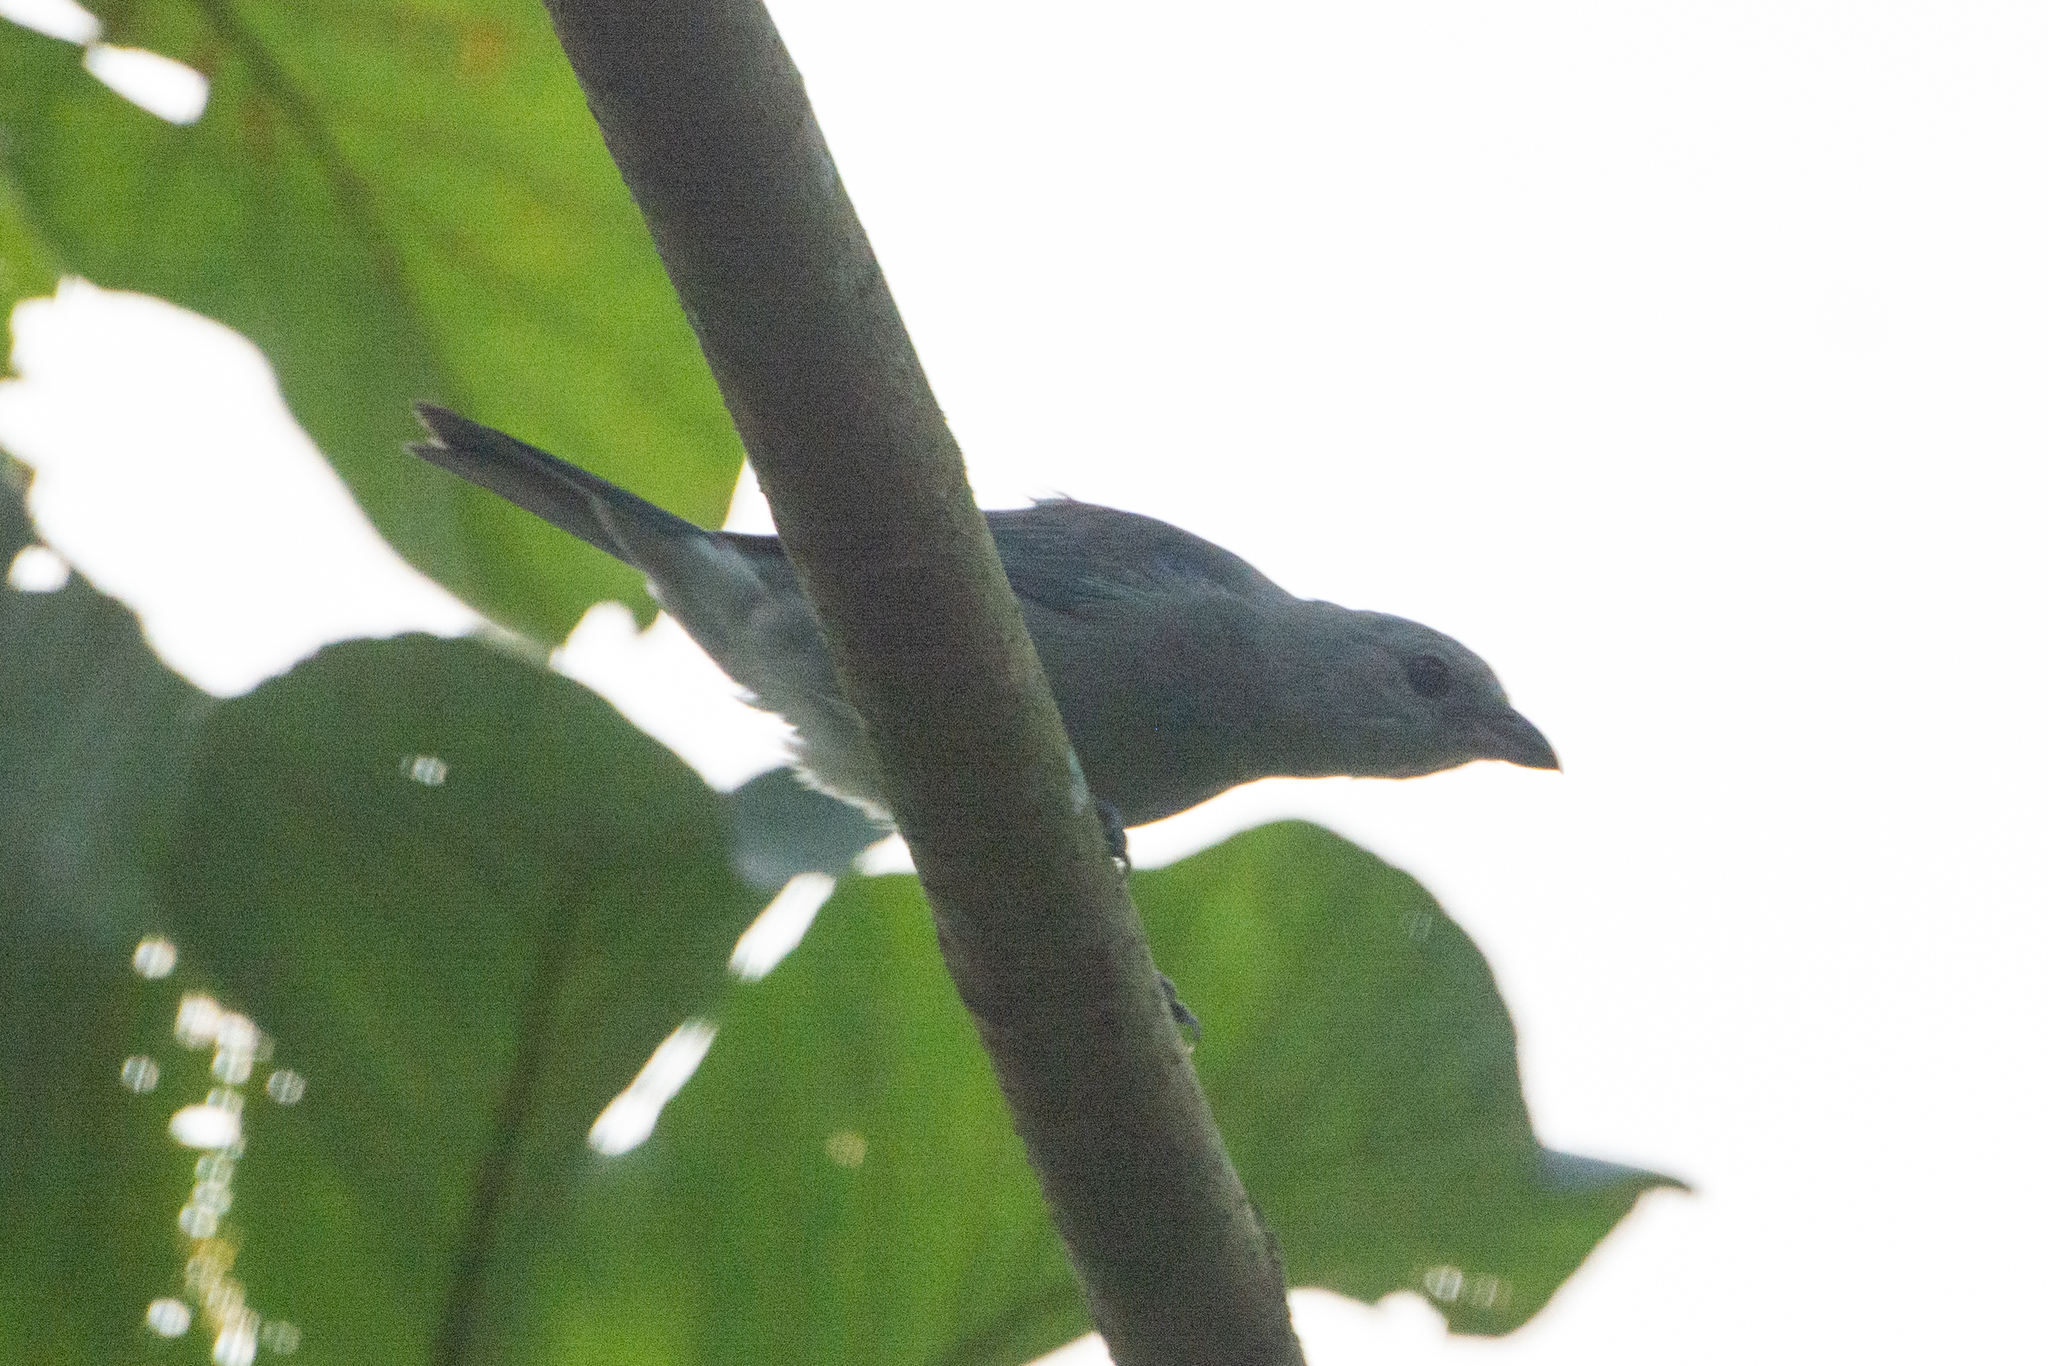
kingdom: Animalia
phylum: Chordata
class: Aves
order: Passeriformes
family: Thraupidae
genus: Thraupis
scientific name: Thraupis episcopus
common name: Blue-grey tanager
